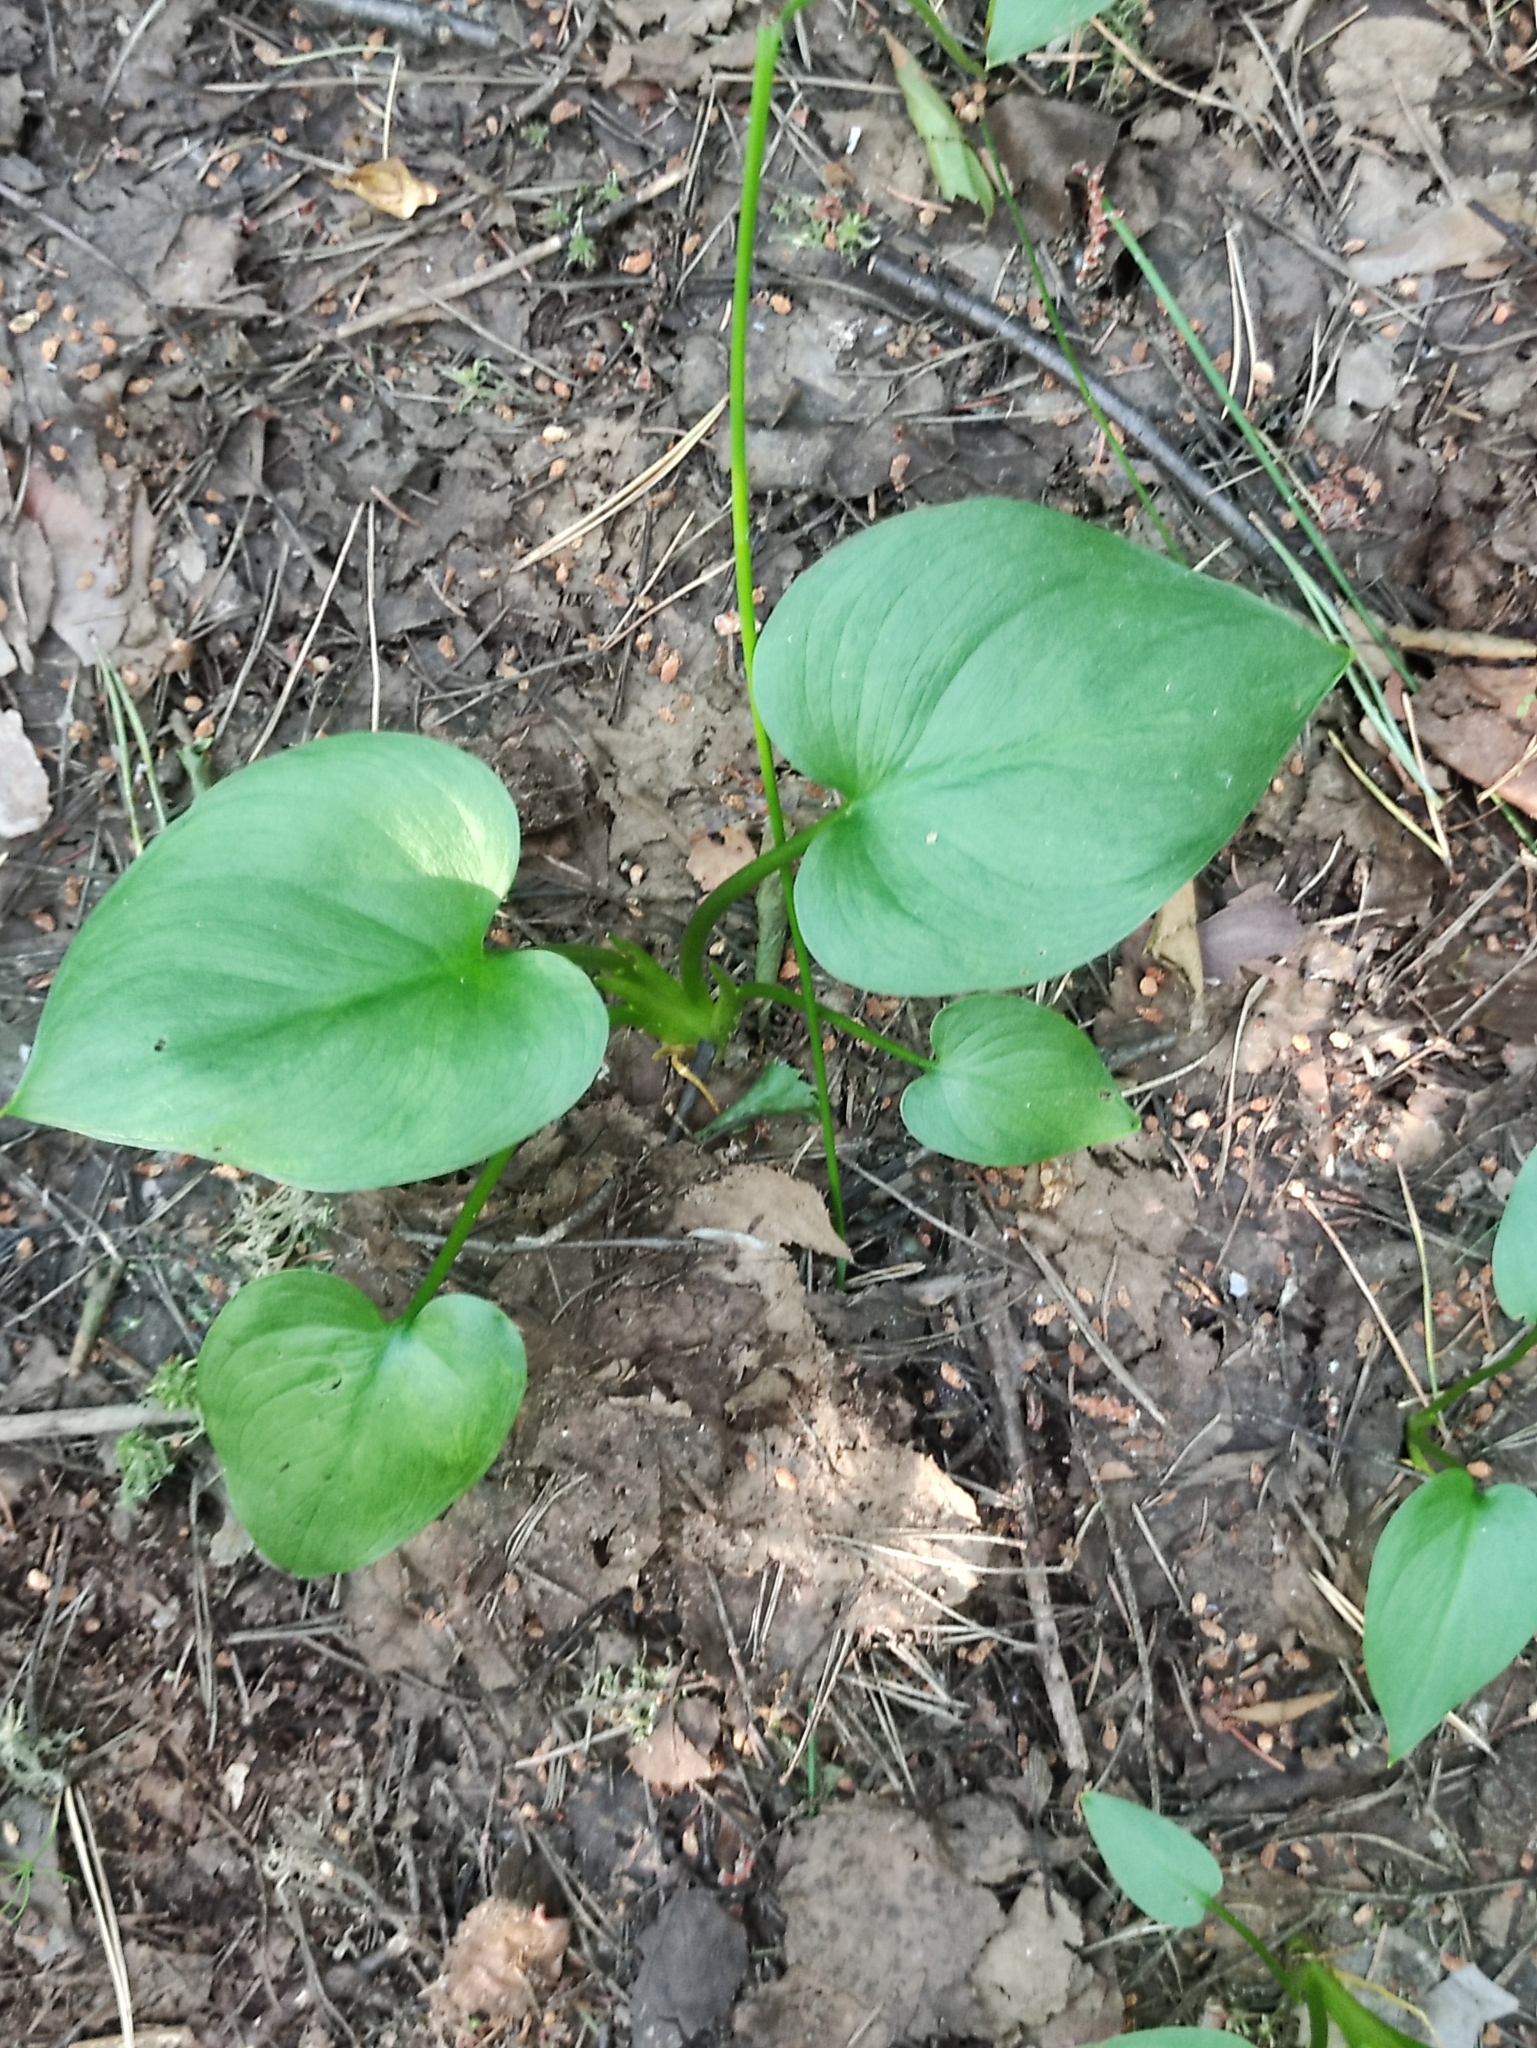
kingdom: Plantae
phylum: Tracheophyta
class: Liliopsida
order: Alismatales
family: Araceae
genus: Calla
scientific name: Calla palustris
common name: Bog arum
